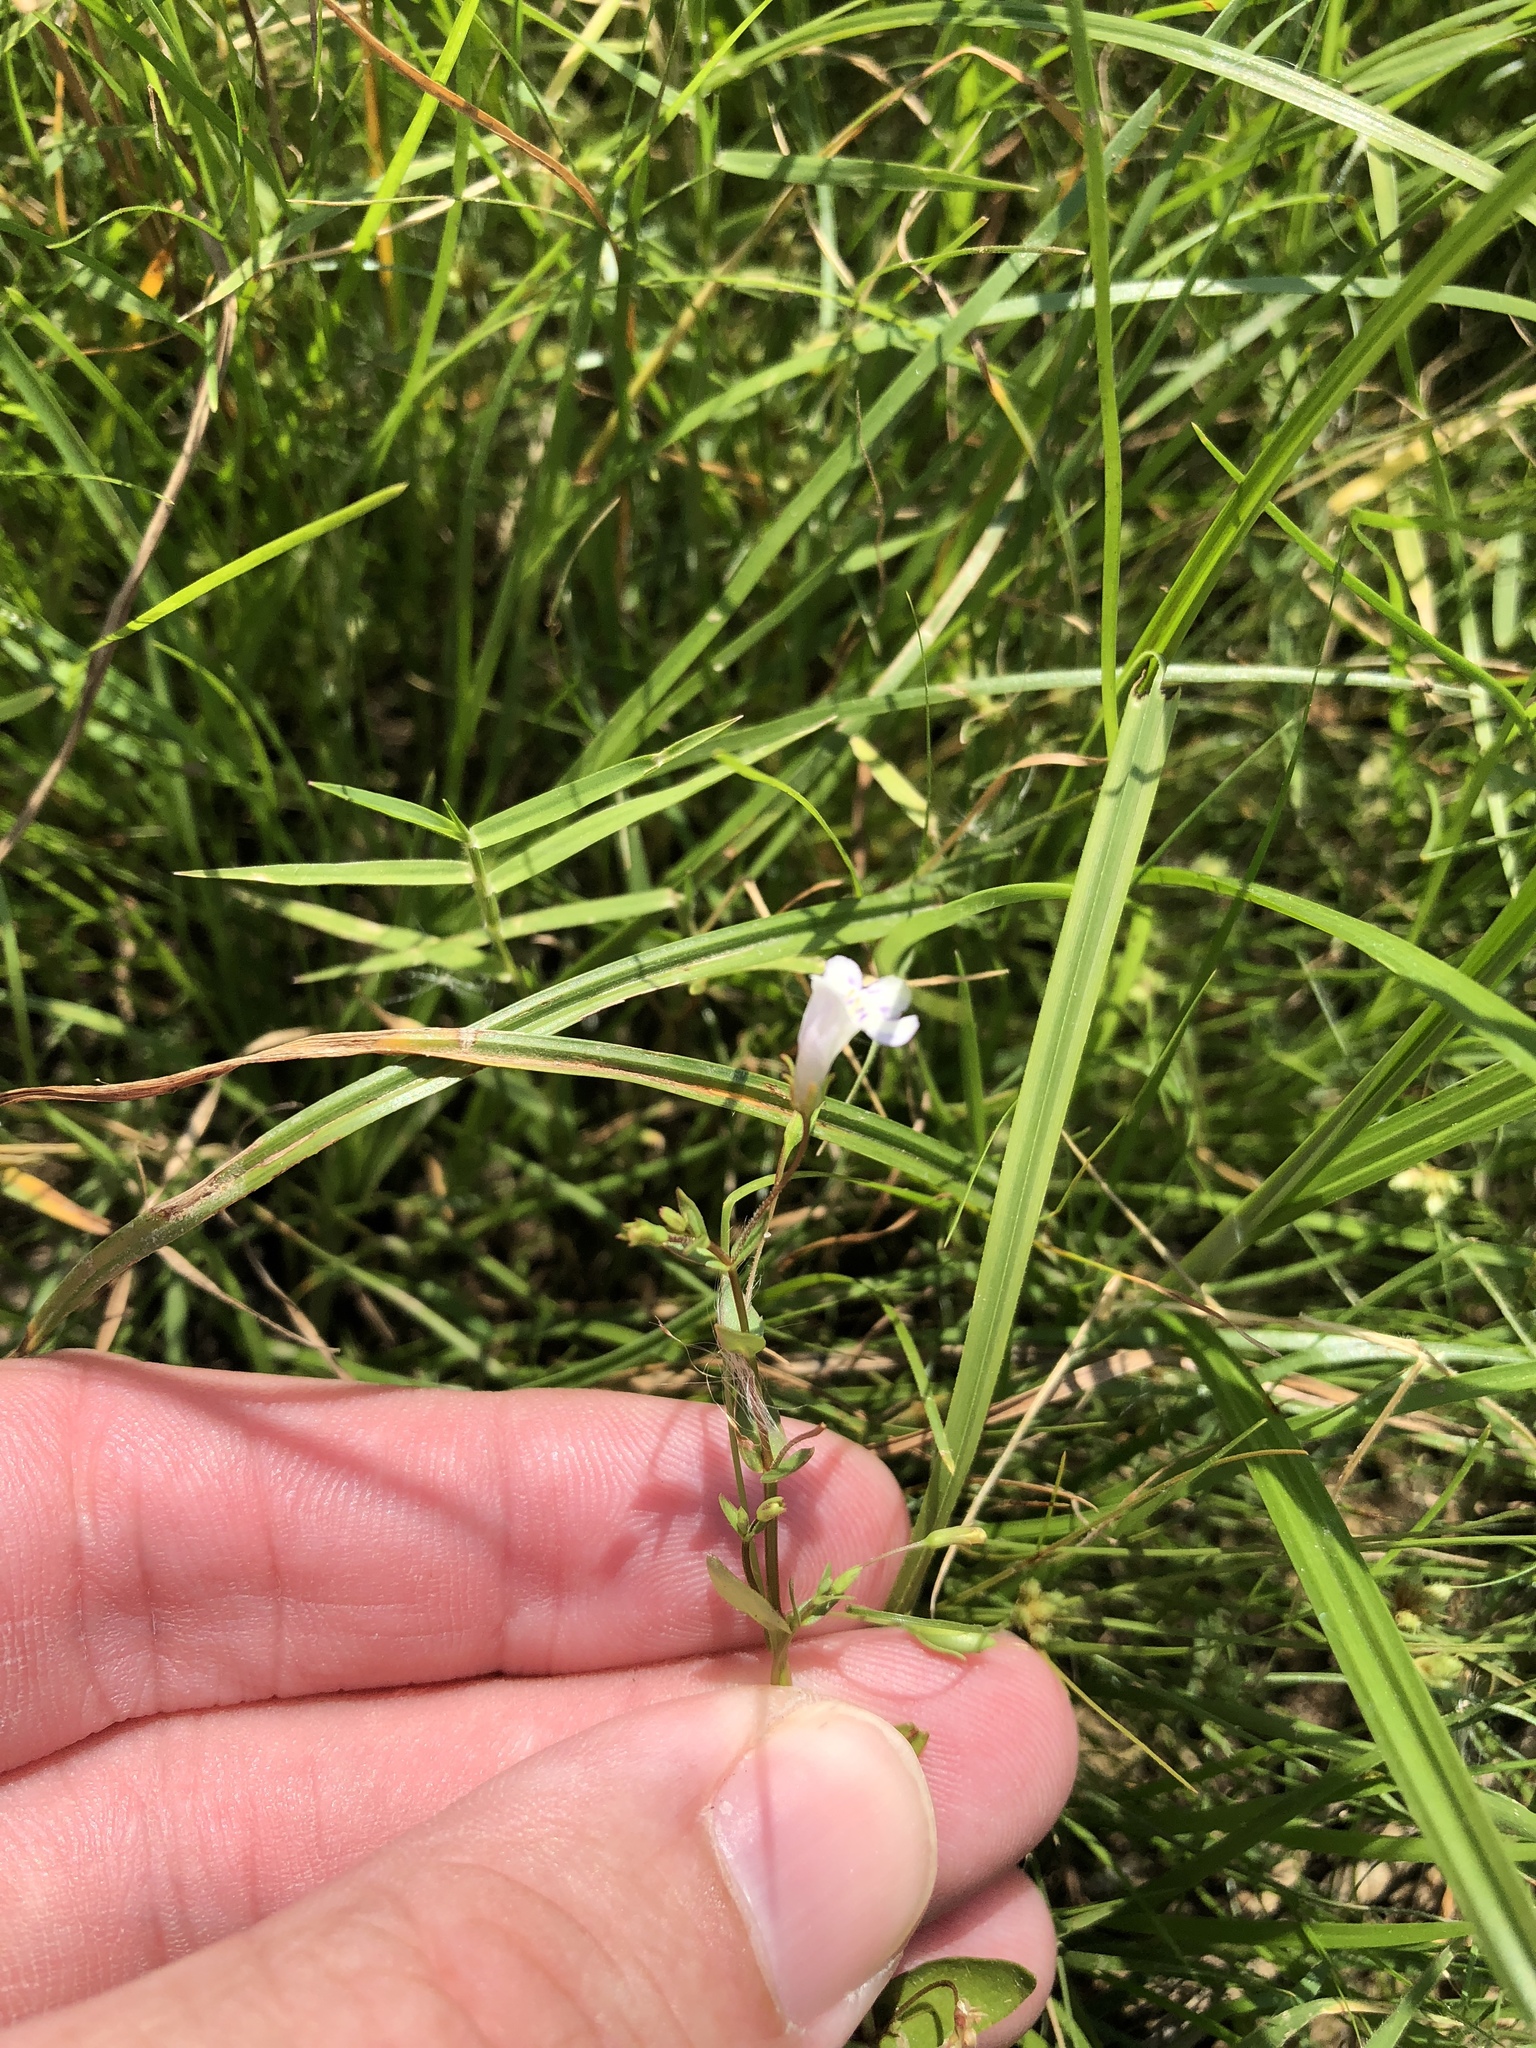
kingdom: Plantae
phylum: Tracheophyta
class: Magnoliopsida
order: Lamiales
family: Linderniaceae
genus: Lindernia
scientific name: Lindernia dubia
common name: Annual false pimpernel
